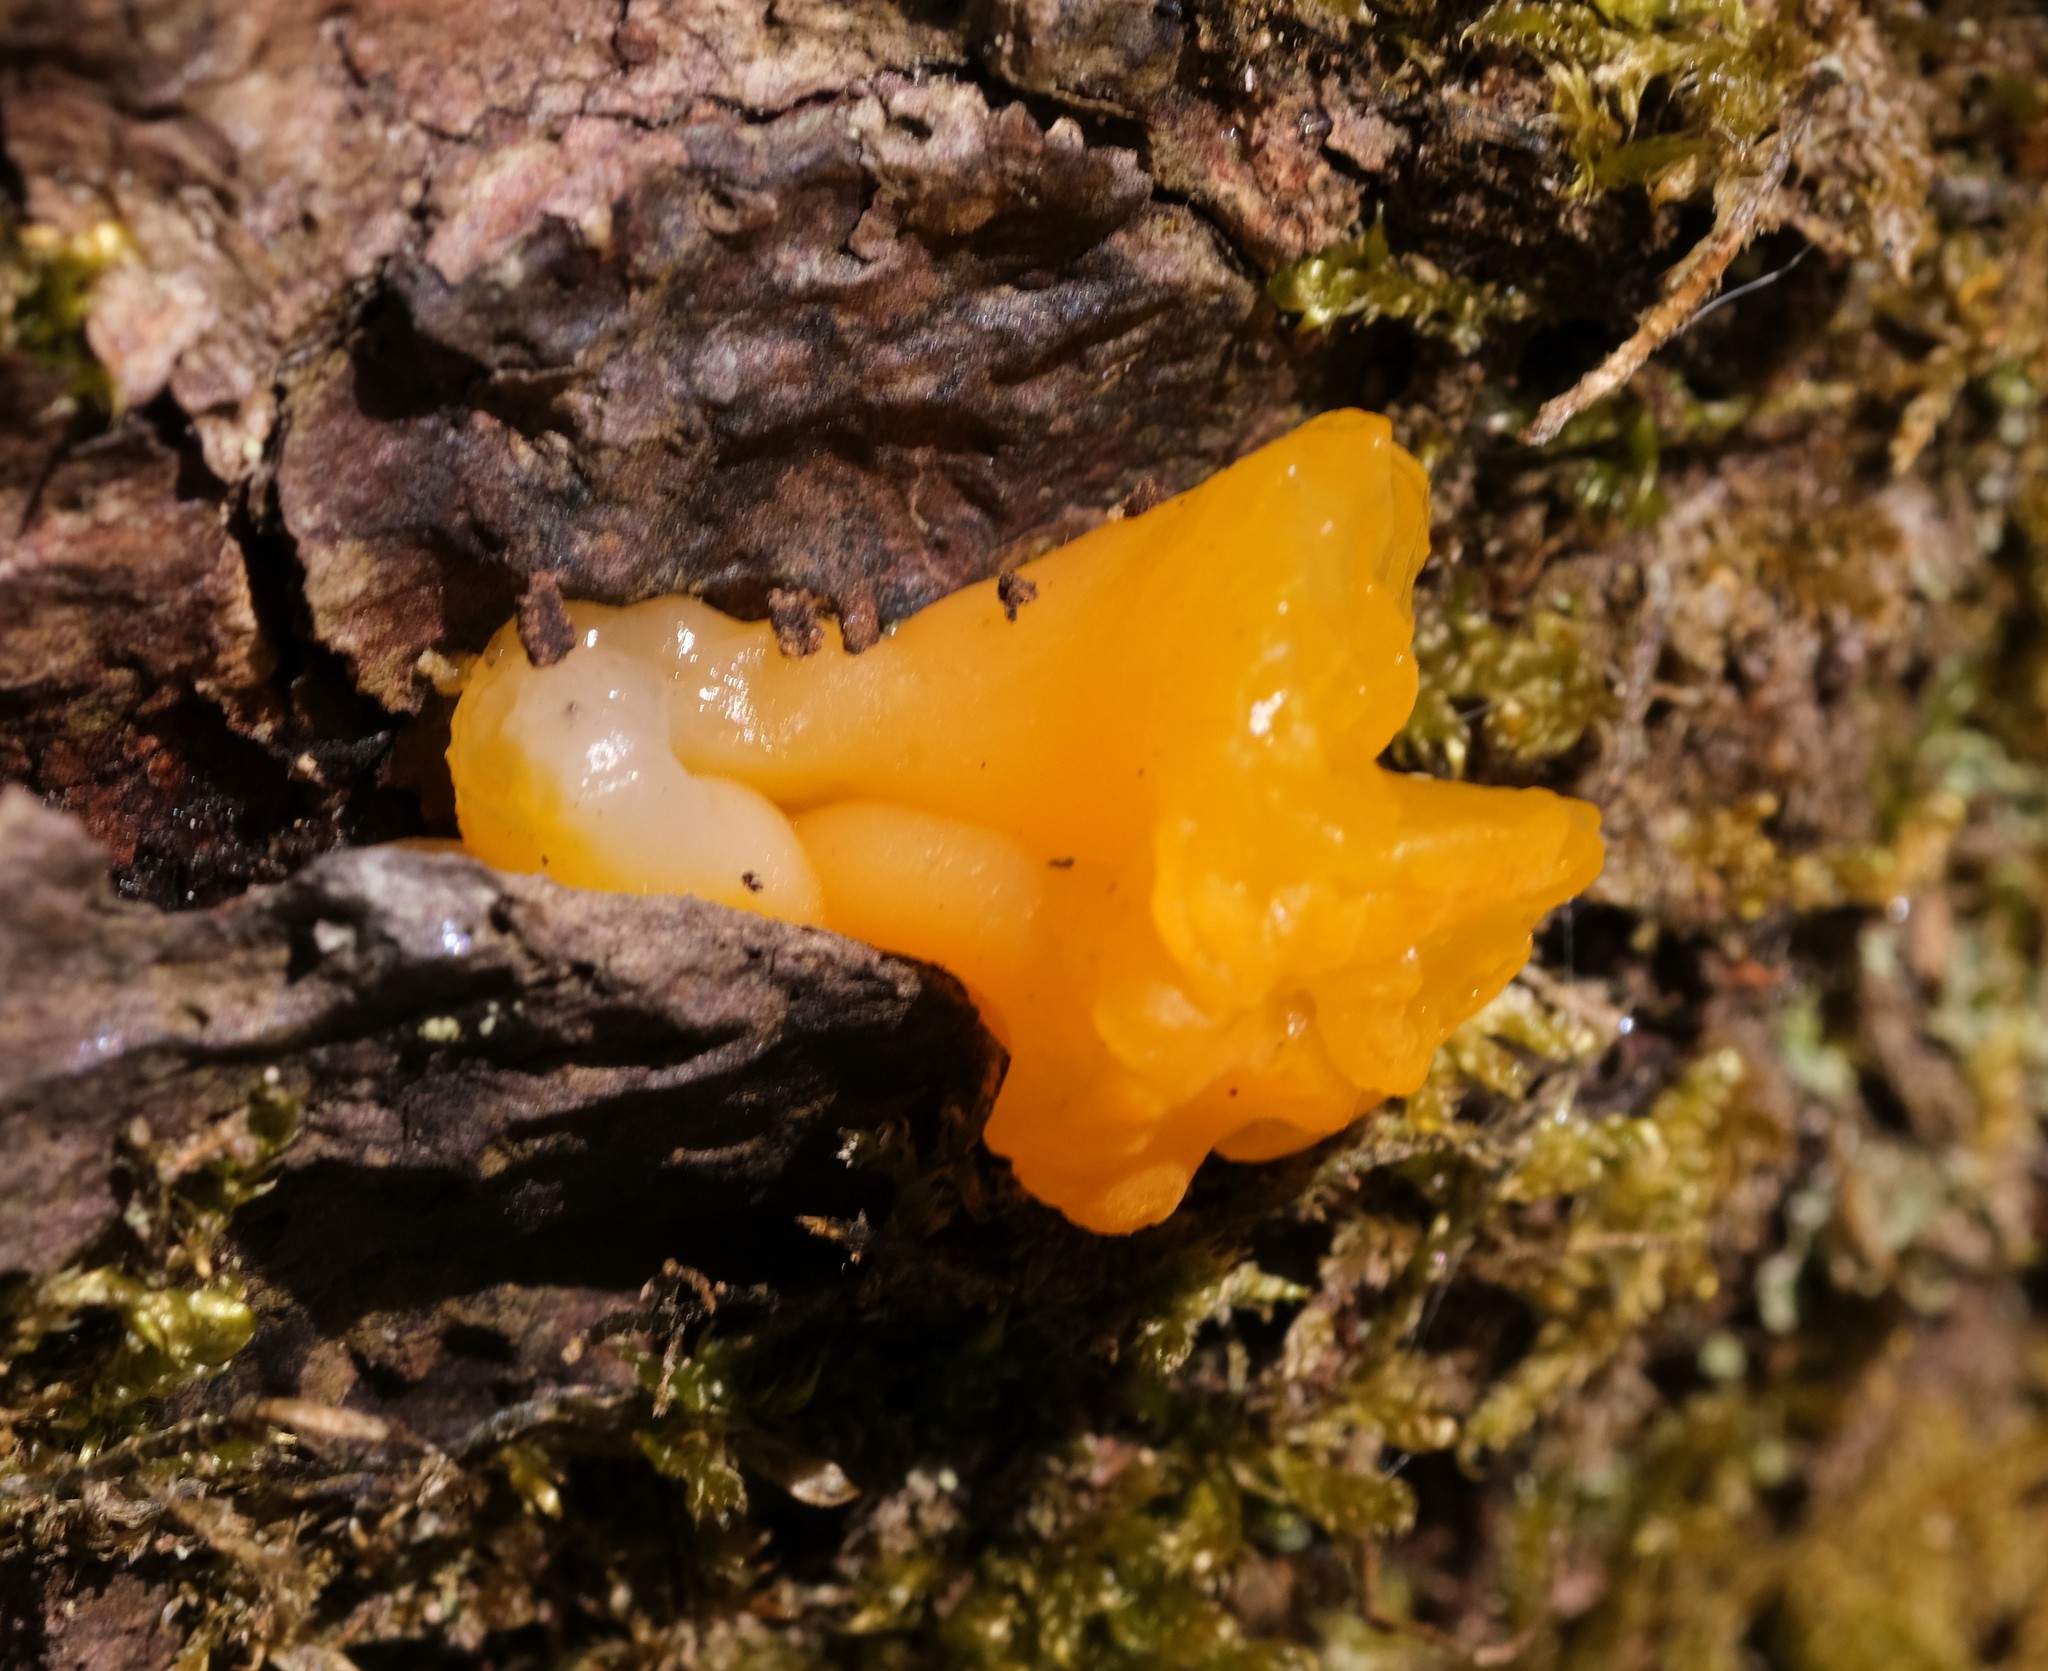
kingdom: Fungi
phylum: Basidiomycota
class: Dacrymycetes
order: Dacrymycetales
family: Dacrymycetaceae
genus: Dacrymyces
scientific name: Dacrymyces chrysospermus
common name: Orange jelly spot
